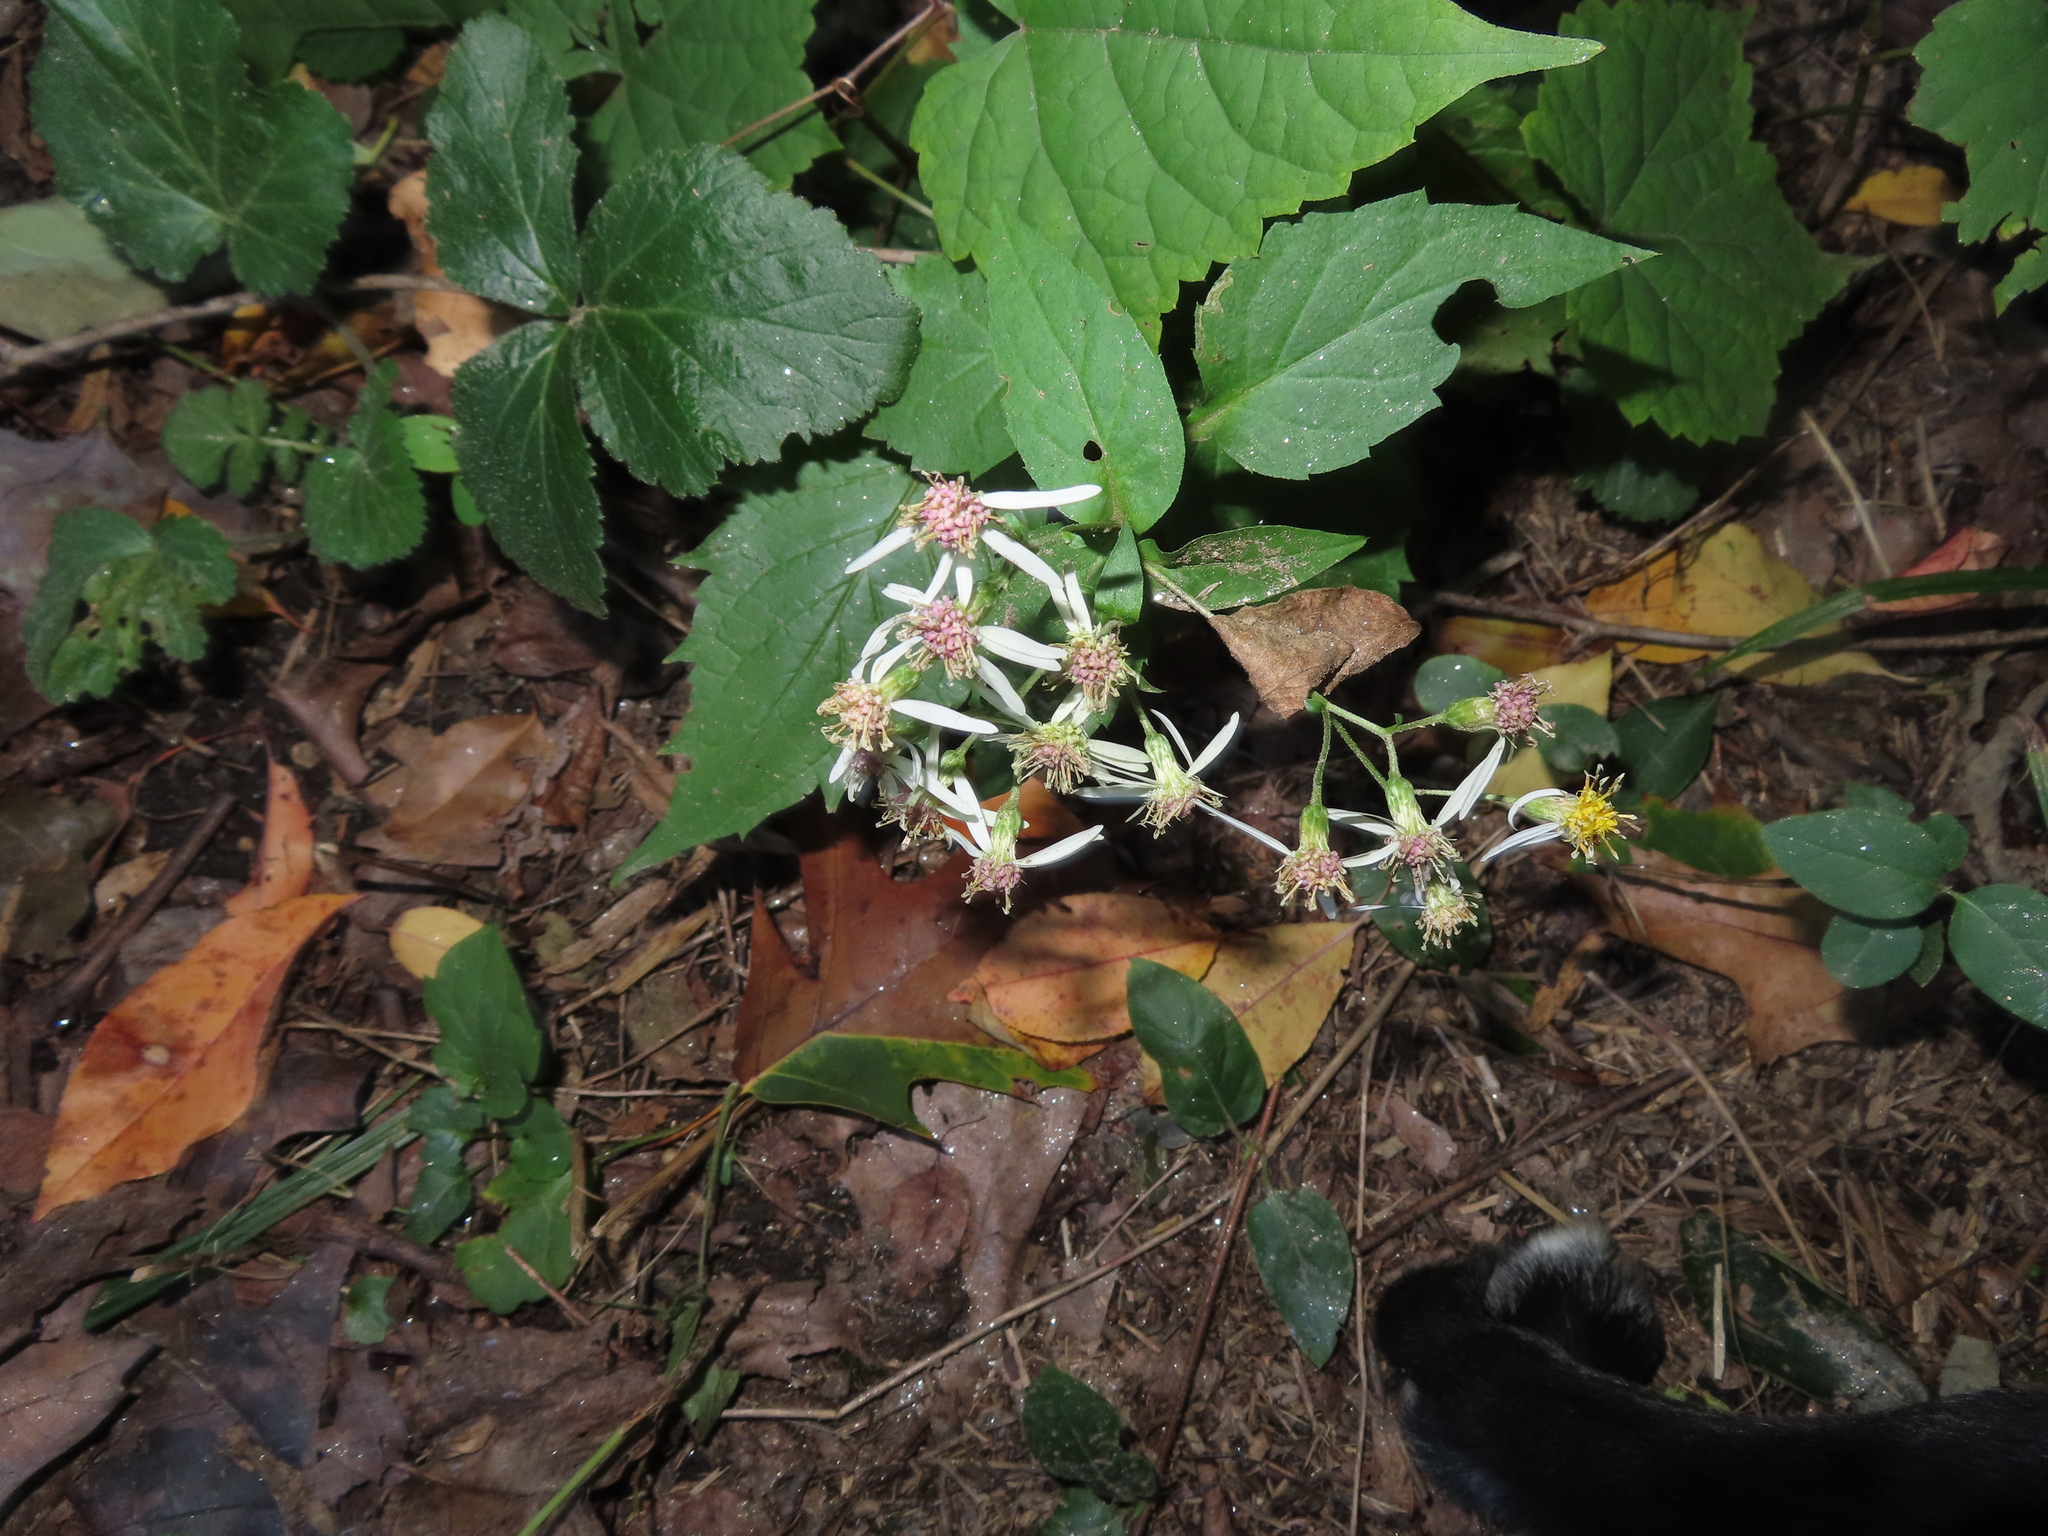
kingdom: Plantae
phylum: Tracheophyta
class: Magnoliopsida
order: Asterales
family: Asteraceae
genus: Eurybia
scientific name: Eurybia divaricata
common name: White wood aster
